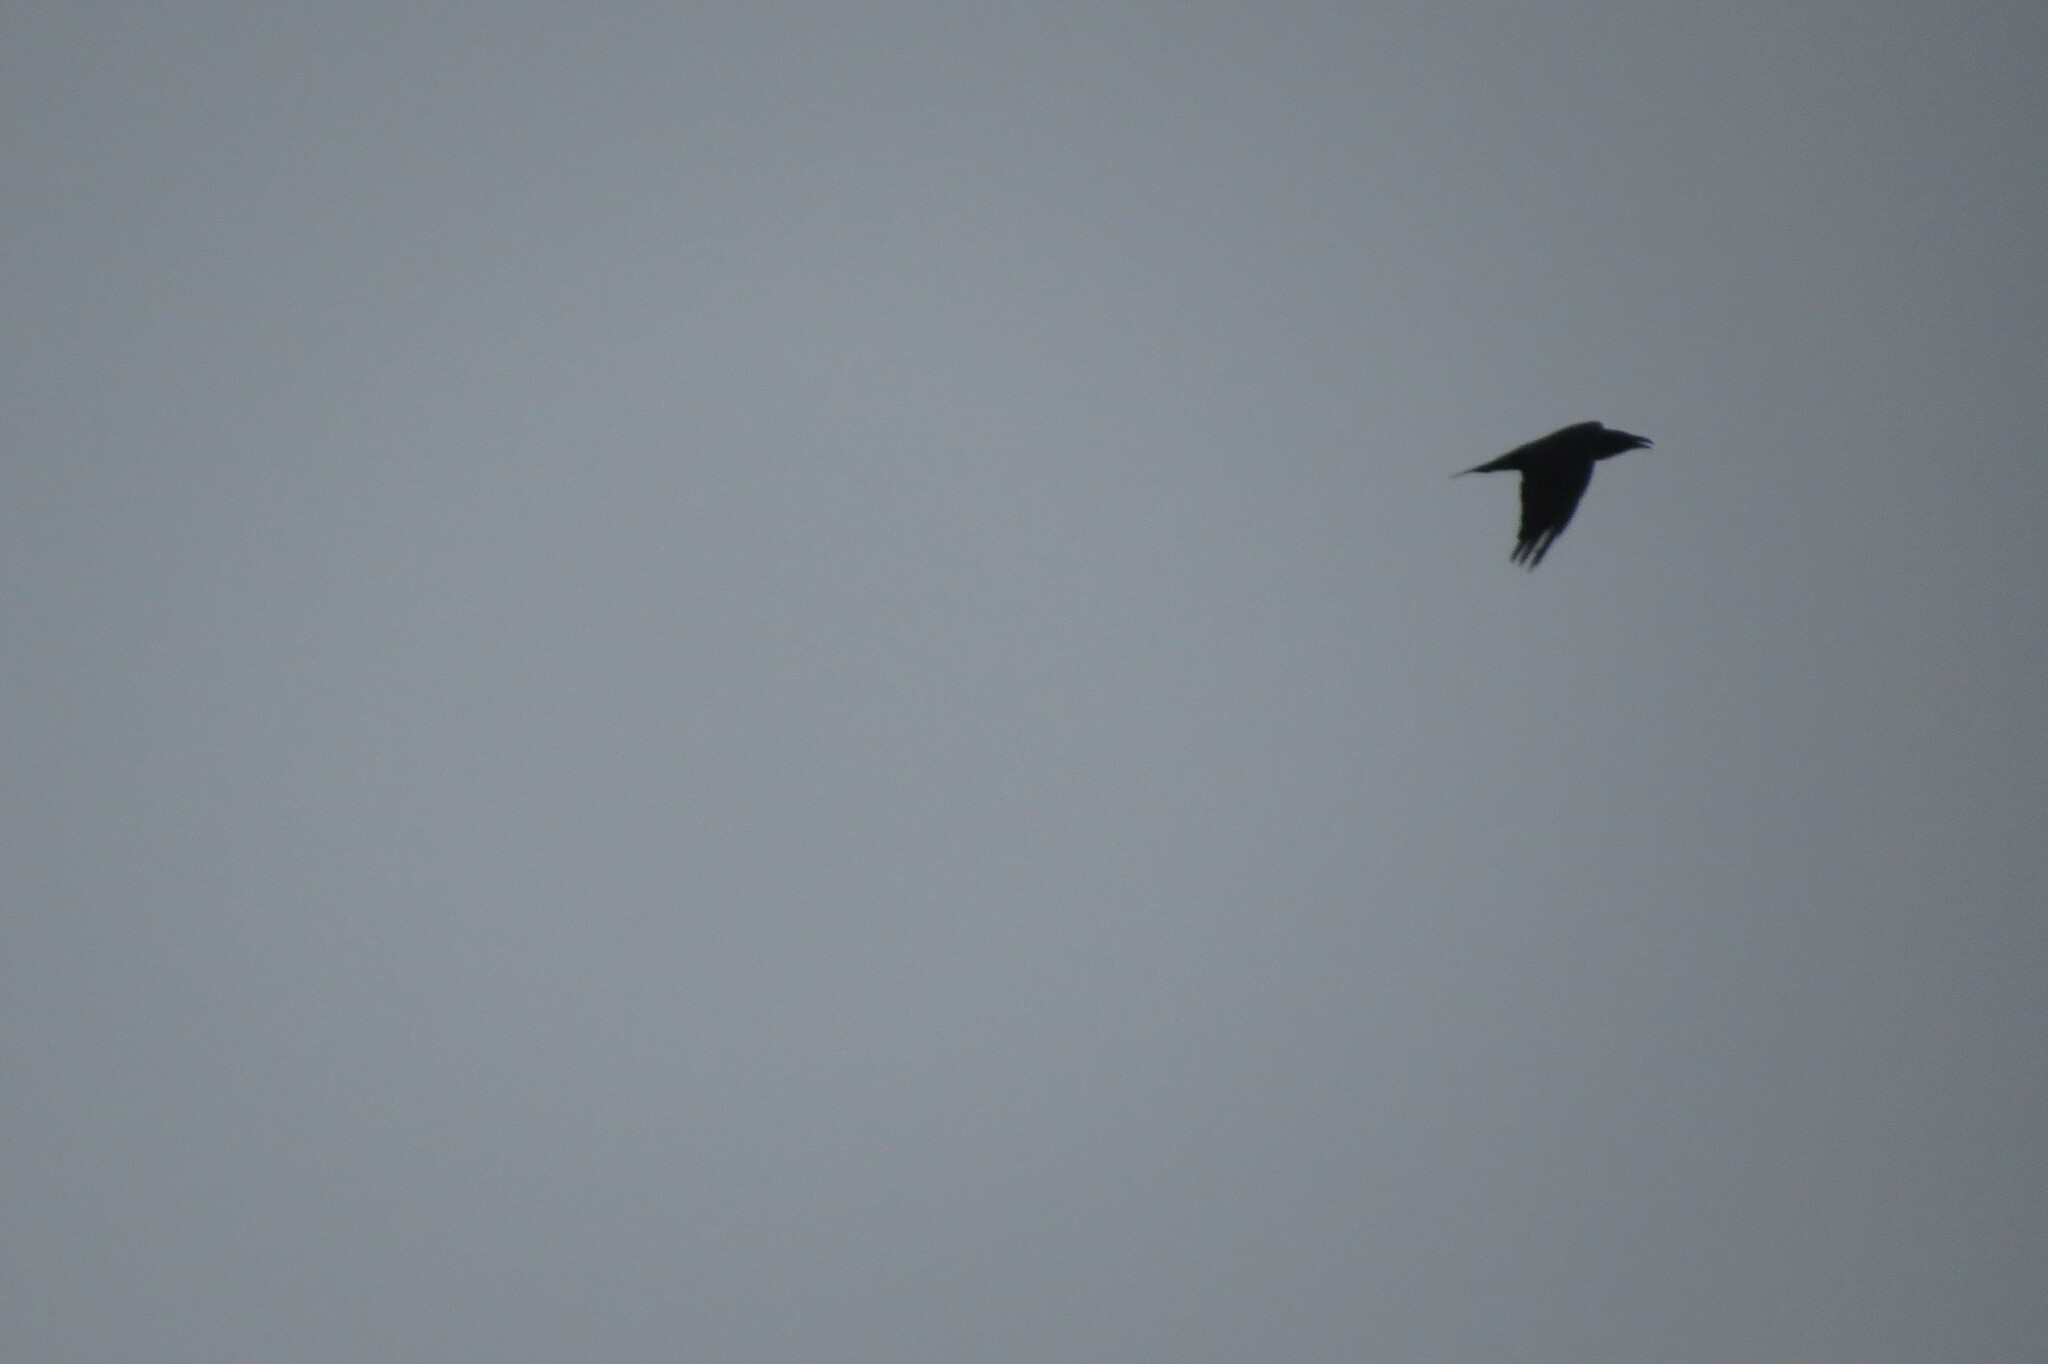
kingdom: Animalia
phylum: Chordata
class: Aves
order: Passeriformes
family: Corvidae
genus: Corvus
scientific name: Corvus corax
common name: Common raven
